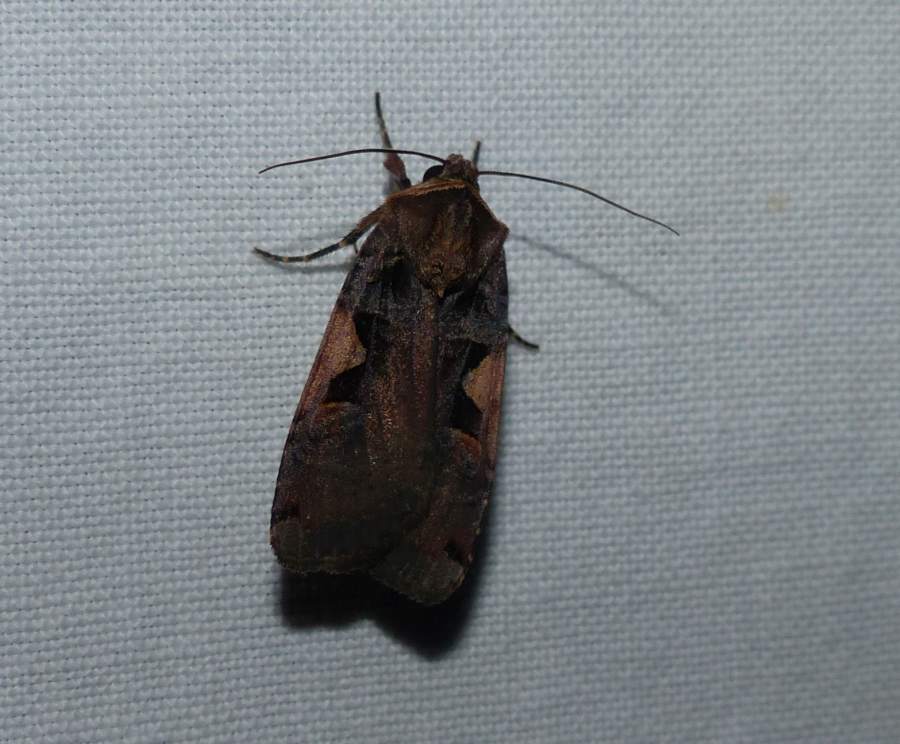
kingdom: Animalia
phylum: Arthropoda
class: Insecta
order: Lepidoptera
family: Noctuidae
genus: Xestia
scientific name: Xestia dolosa
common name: Cutworm moth
